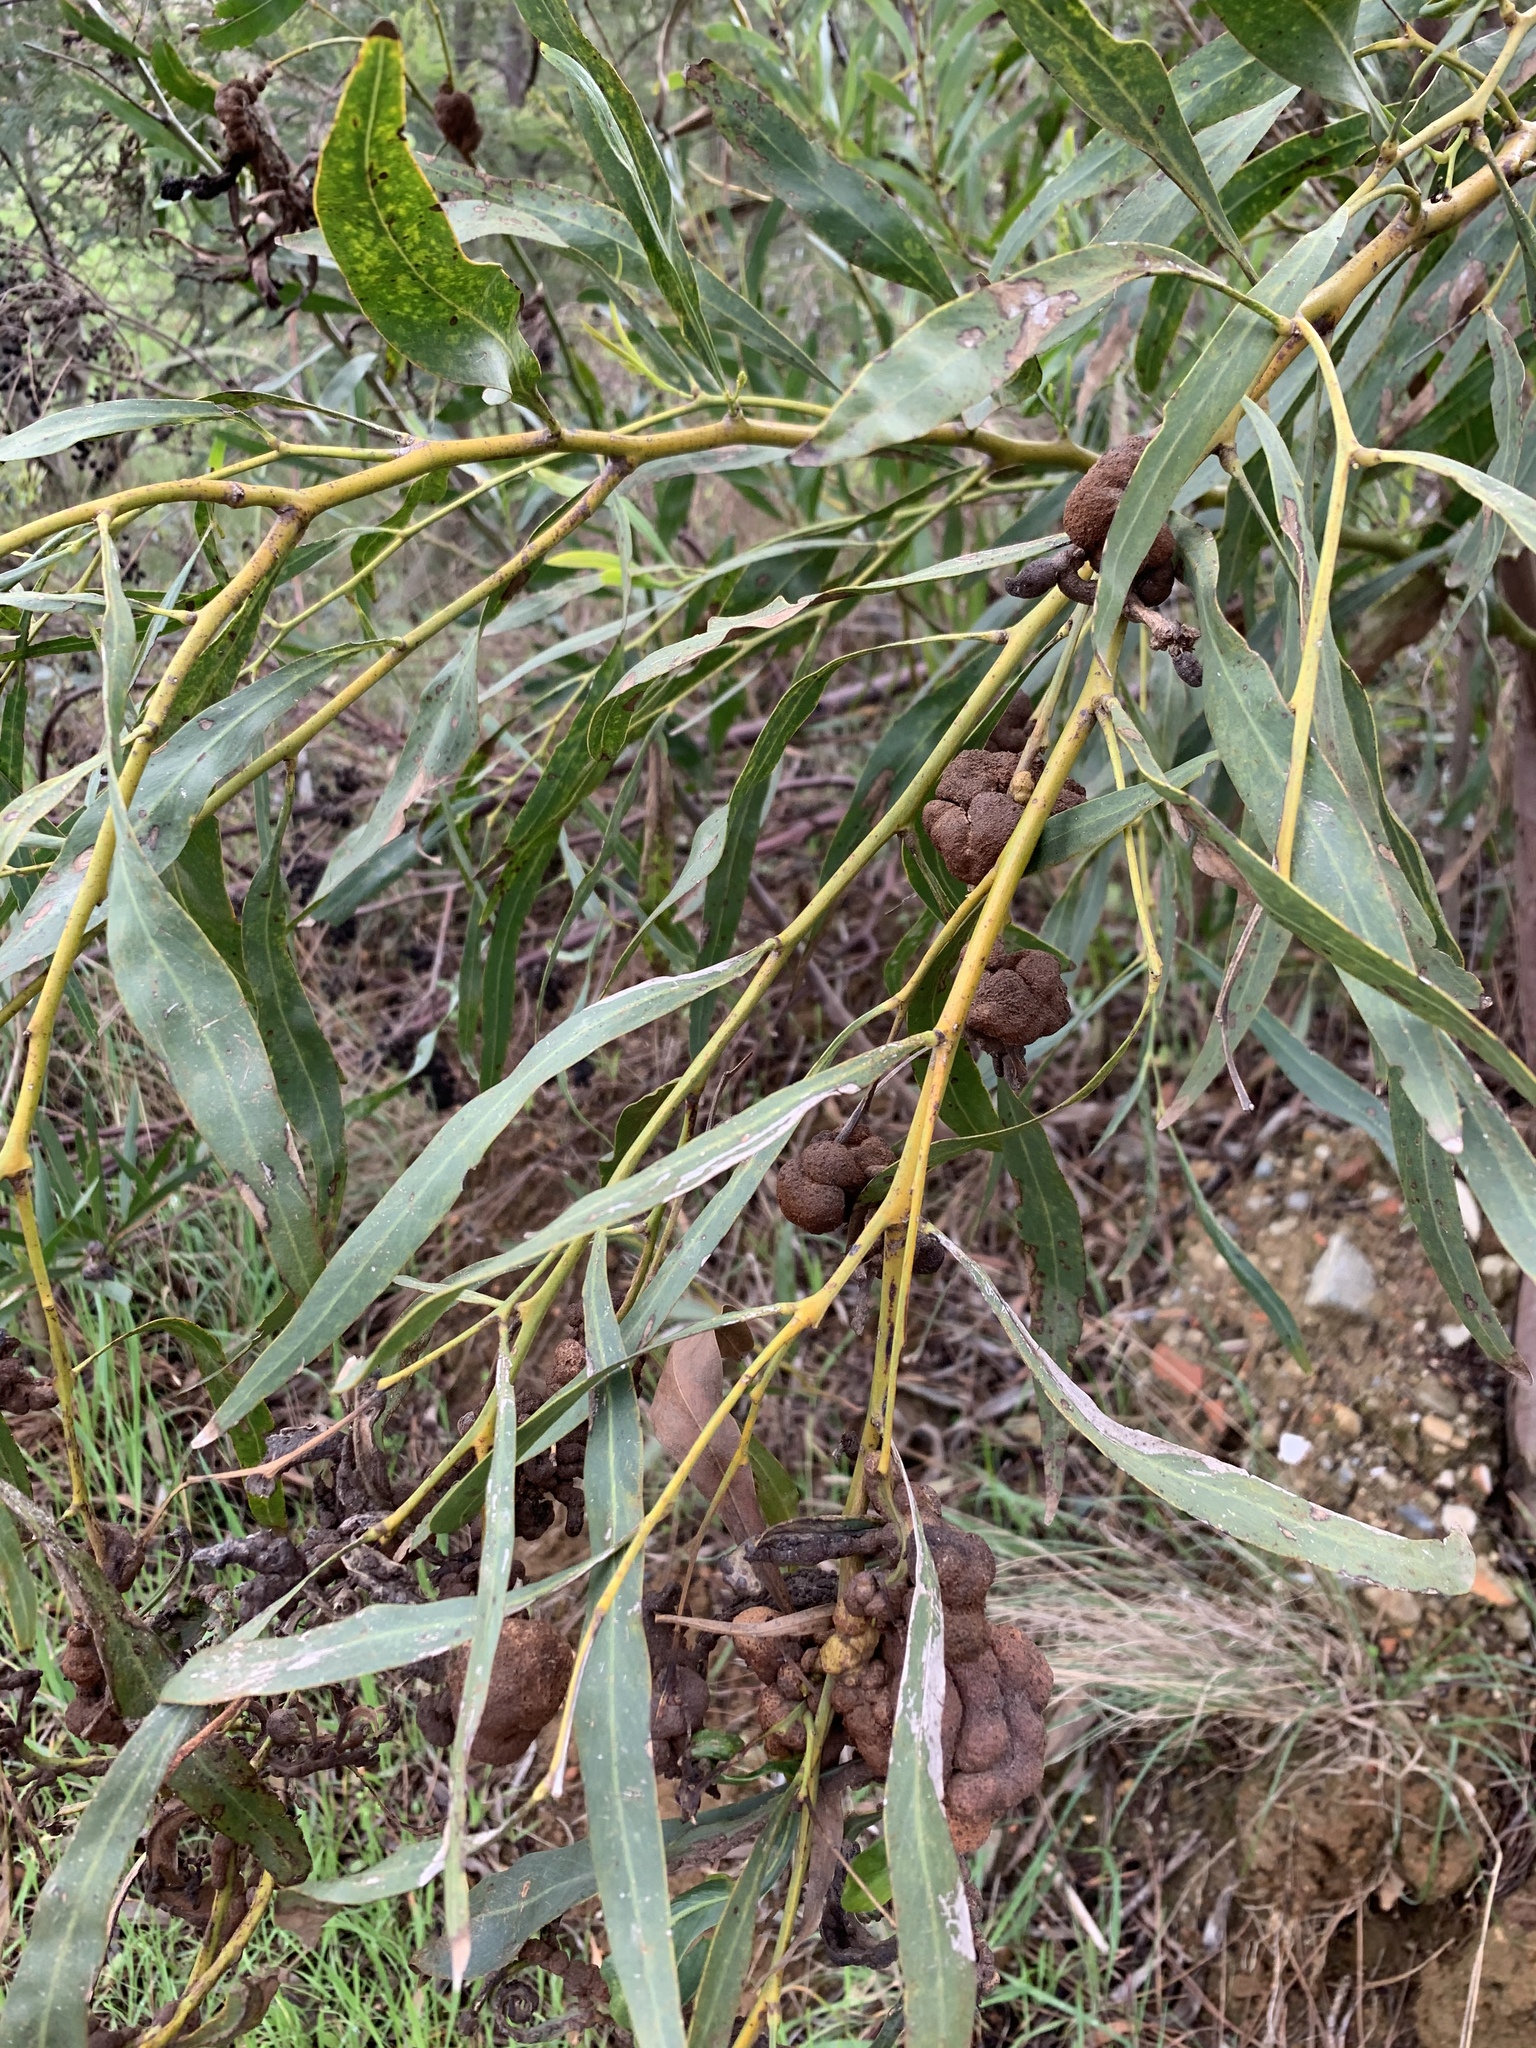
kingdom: Plantae
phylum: Tracheophyta
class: Magnoliopsida
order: Fabales
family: Fabaceae
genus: Acacia
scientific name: Acacia saligna
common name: Orange wattle
